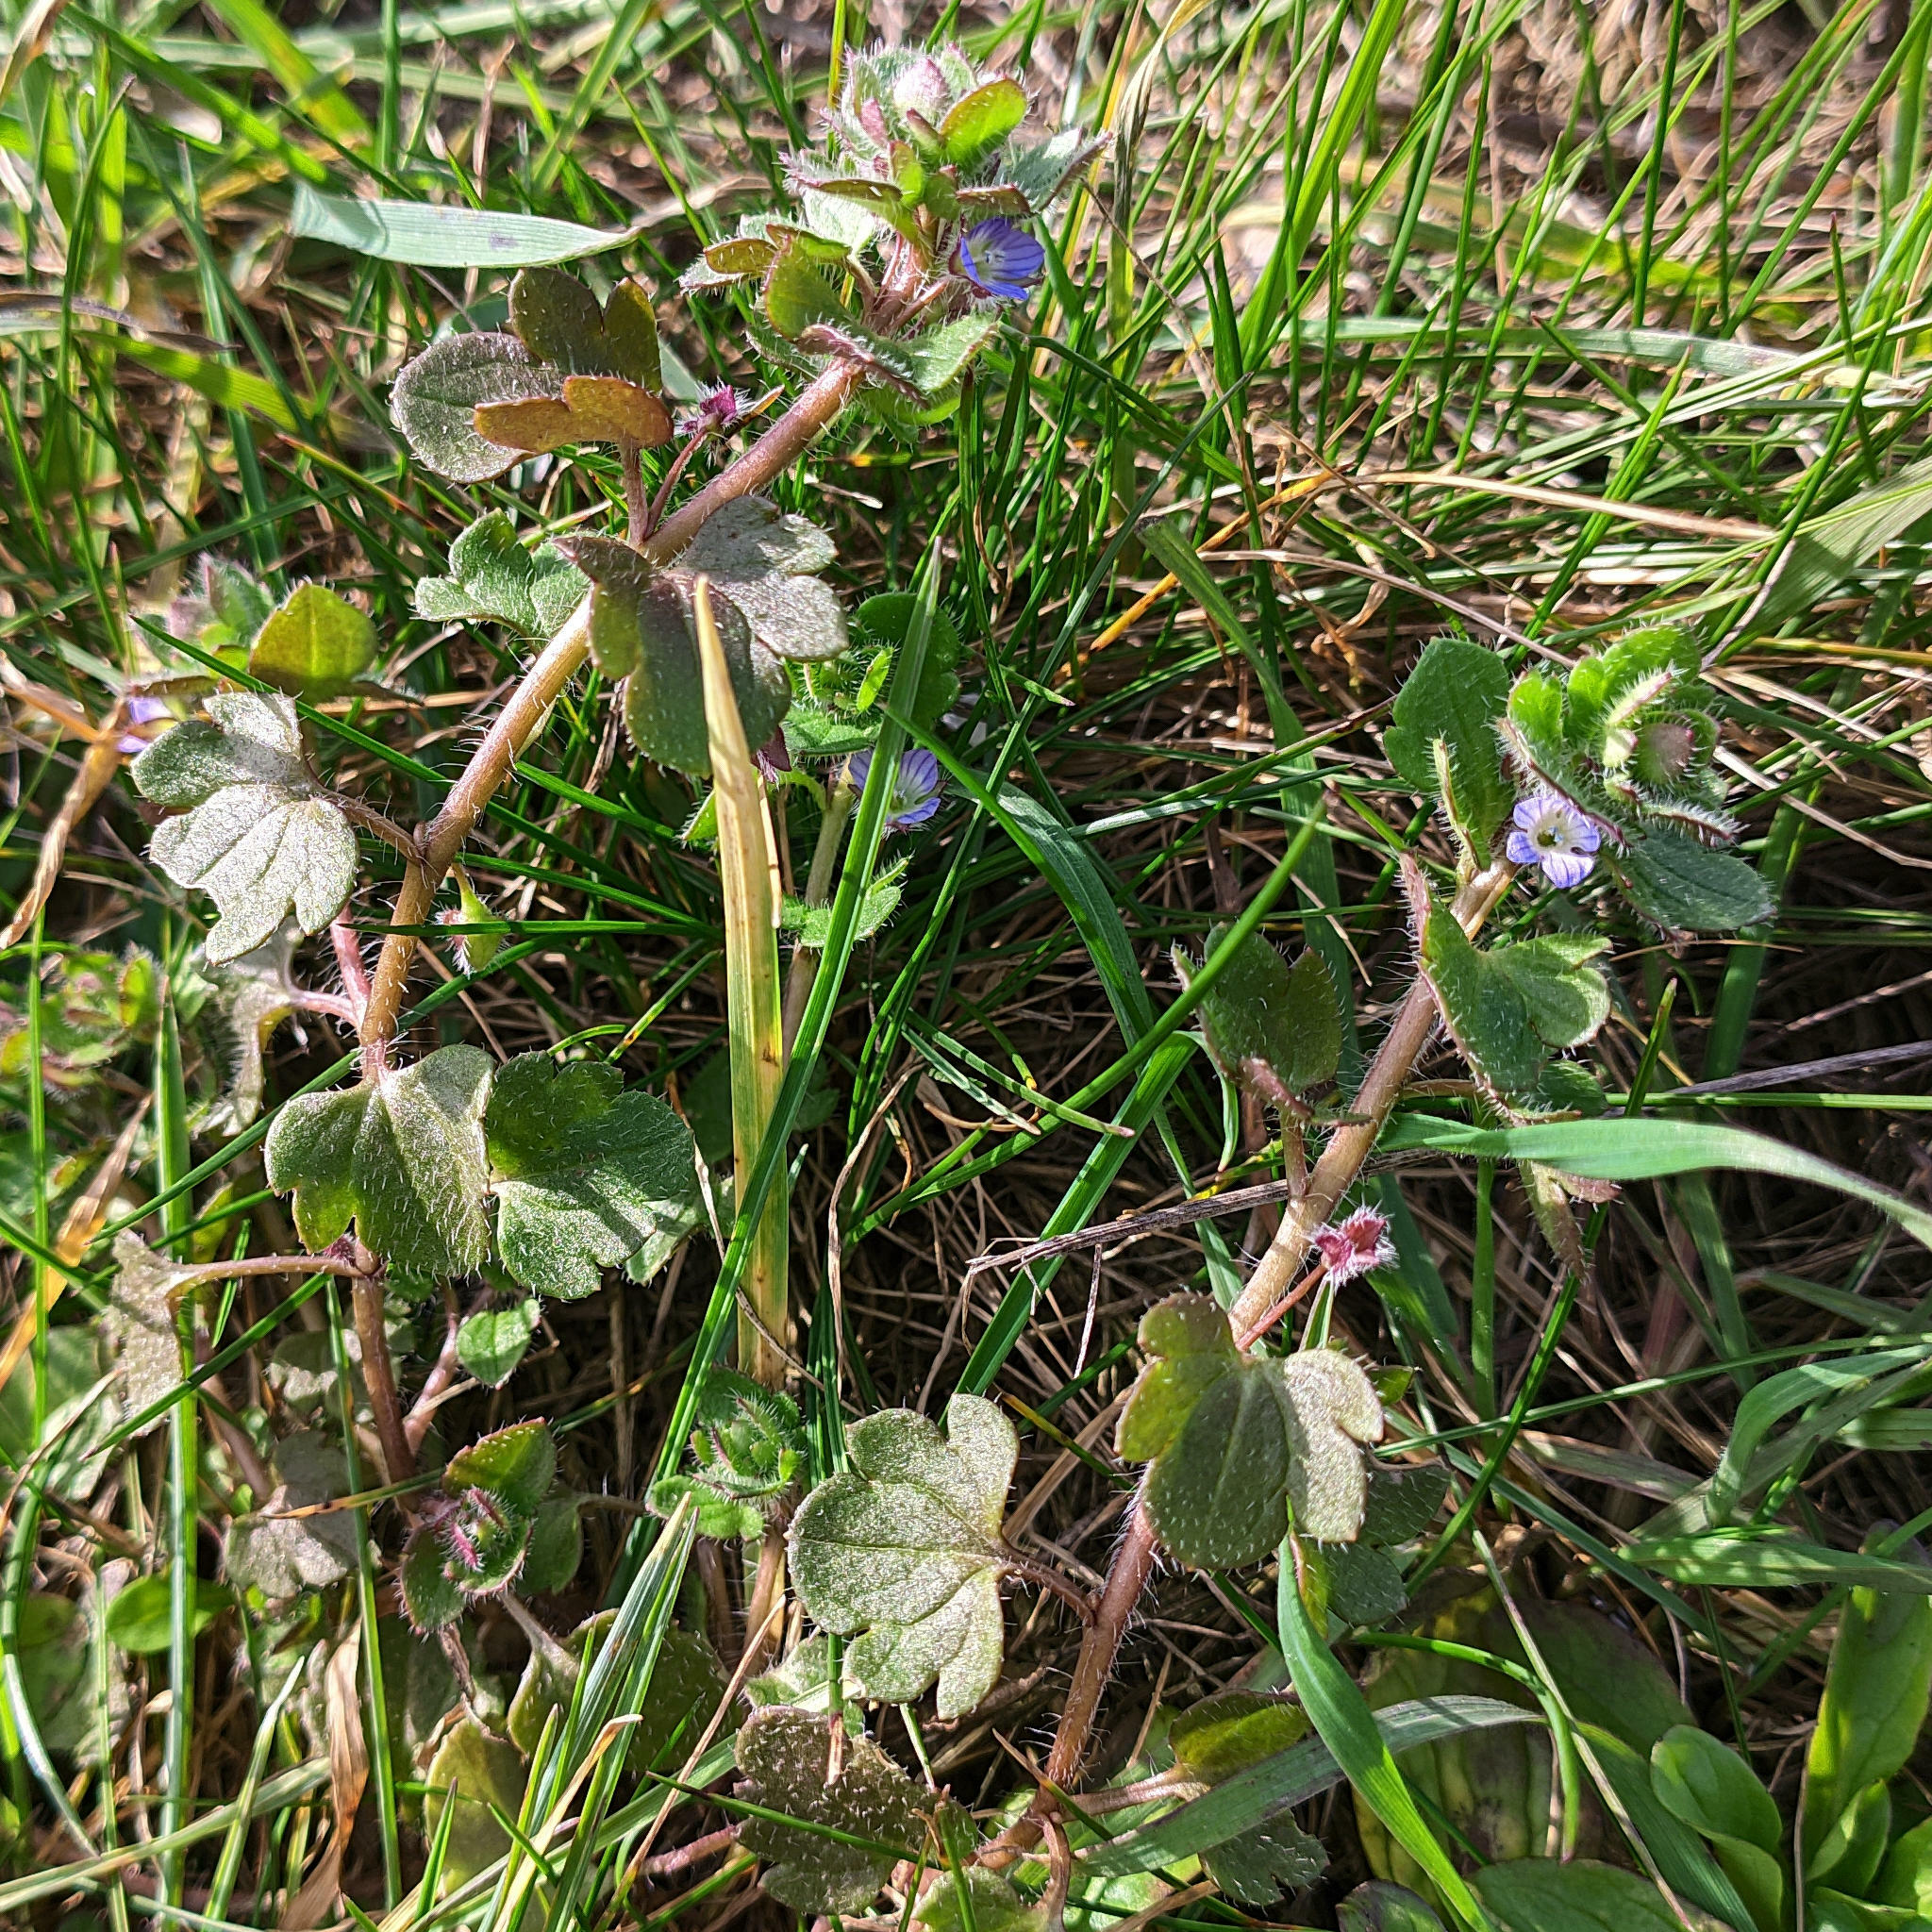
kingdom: Plantae
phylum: Tracheophyta
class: Magnoliopsida
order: Lamiales
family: Plantaginaceae
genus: Veronica
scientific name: Veronica hederifolia
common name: Ivy-leaved speedwell
